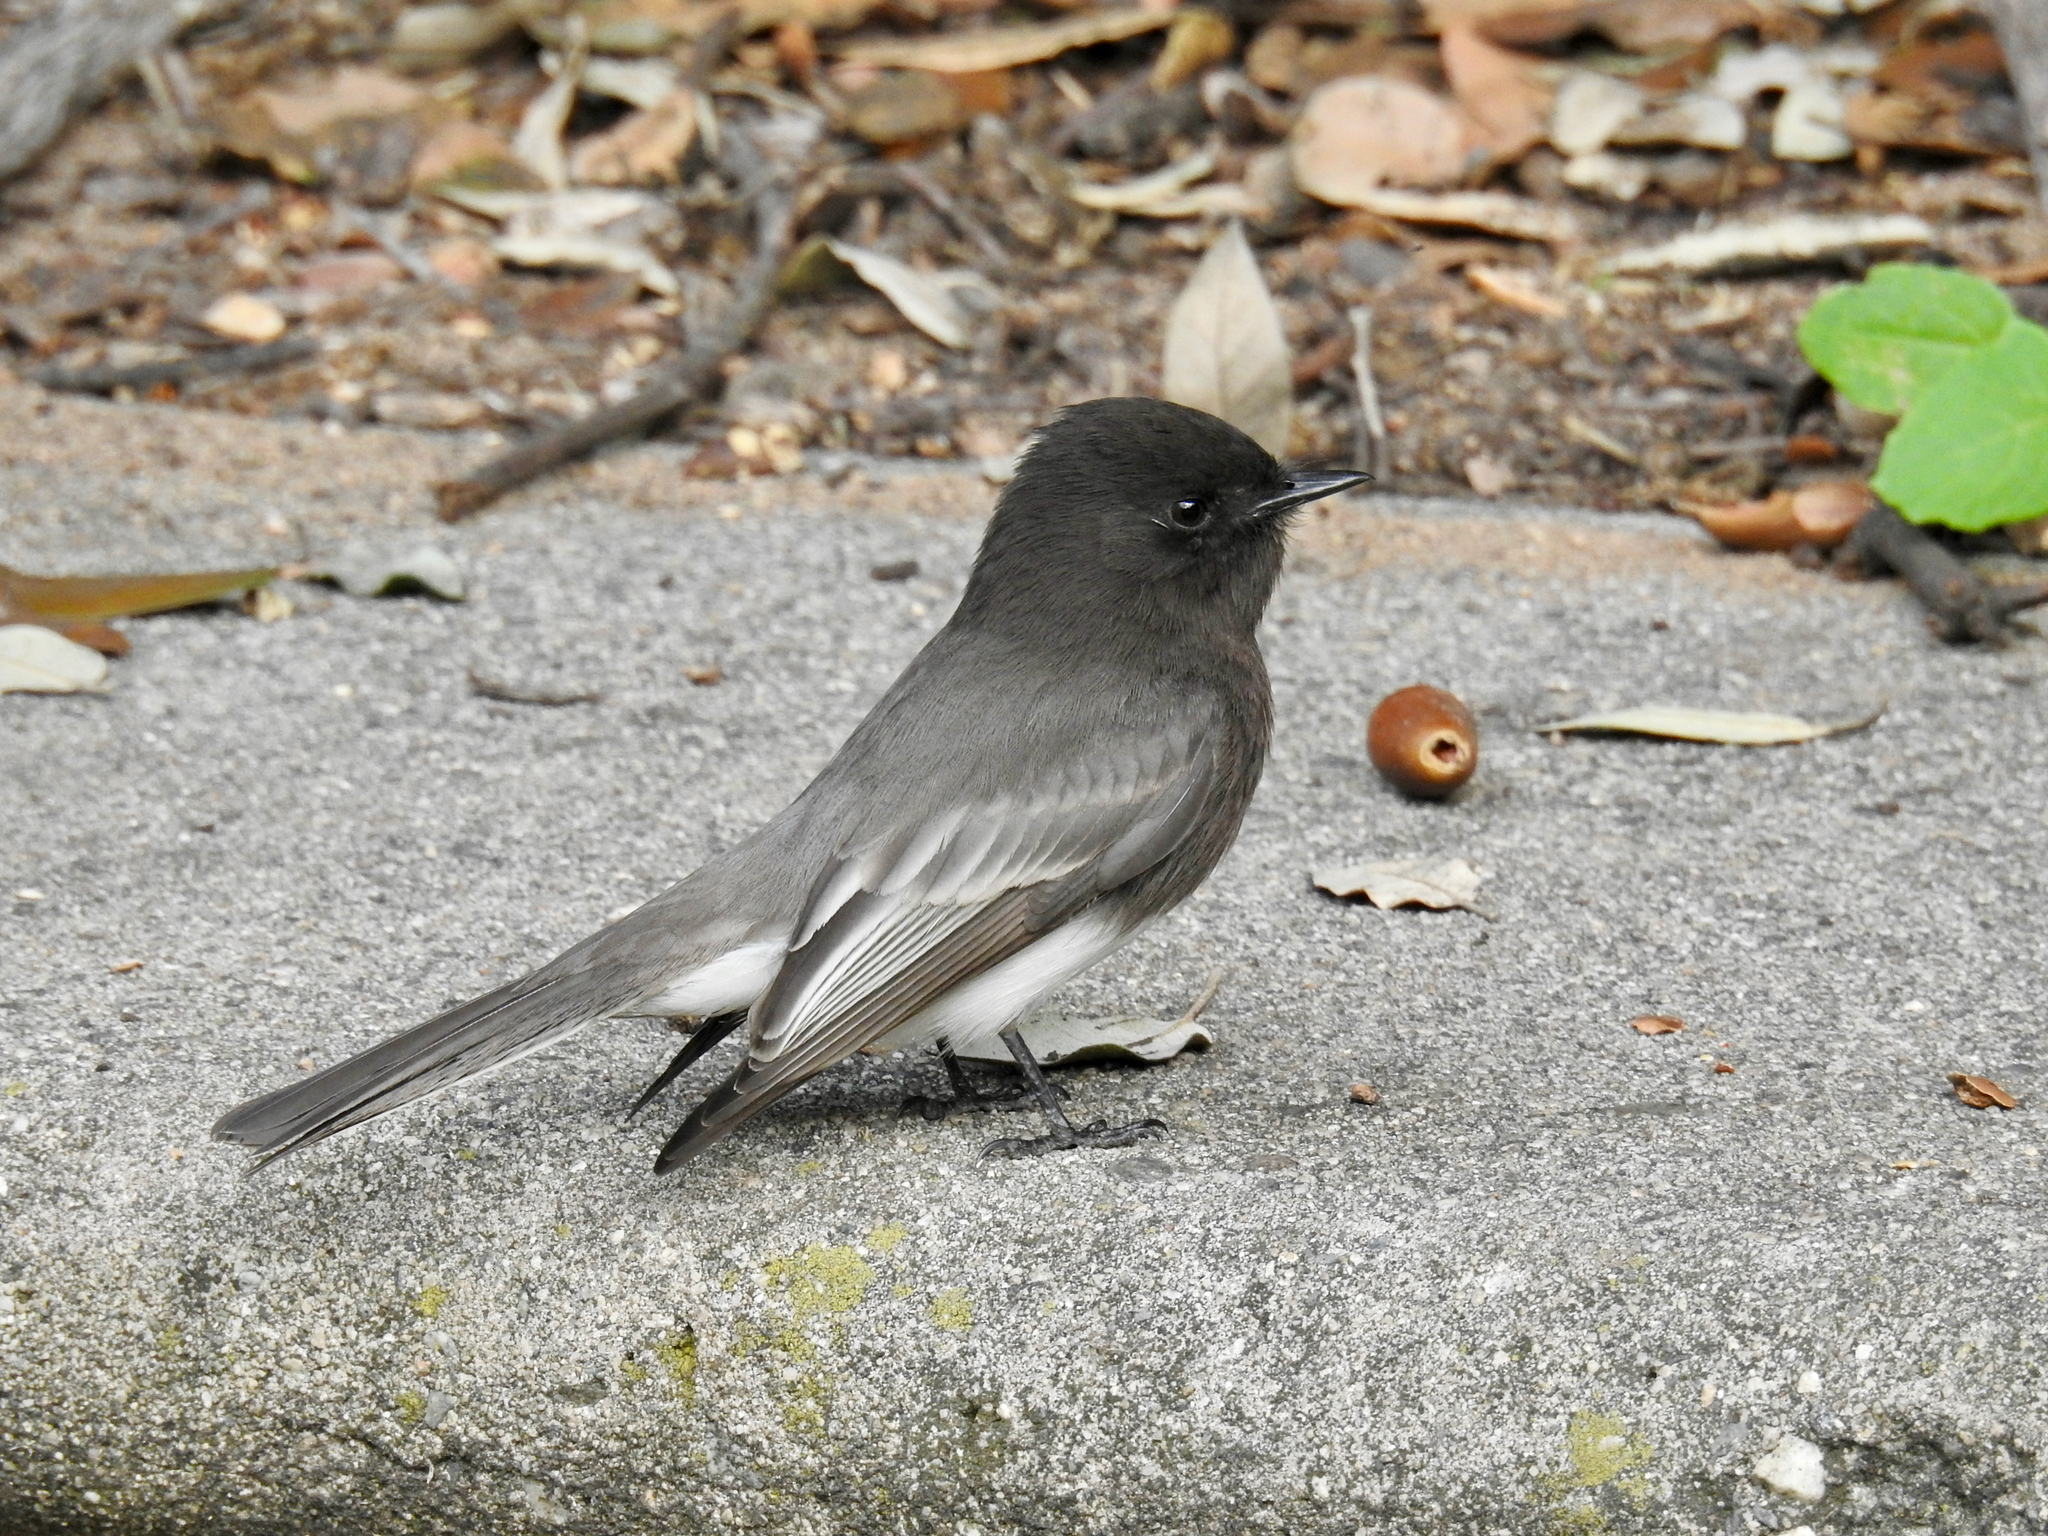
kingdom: Animalia
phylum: Chordata
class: Aves
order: Passeriformes
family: Tyrannidae
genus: Sayornis
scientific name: Sayornis nigricans
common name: Black phoebe
